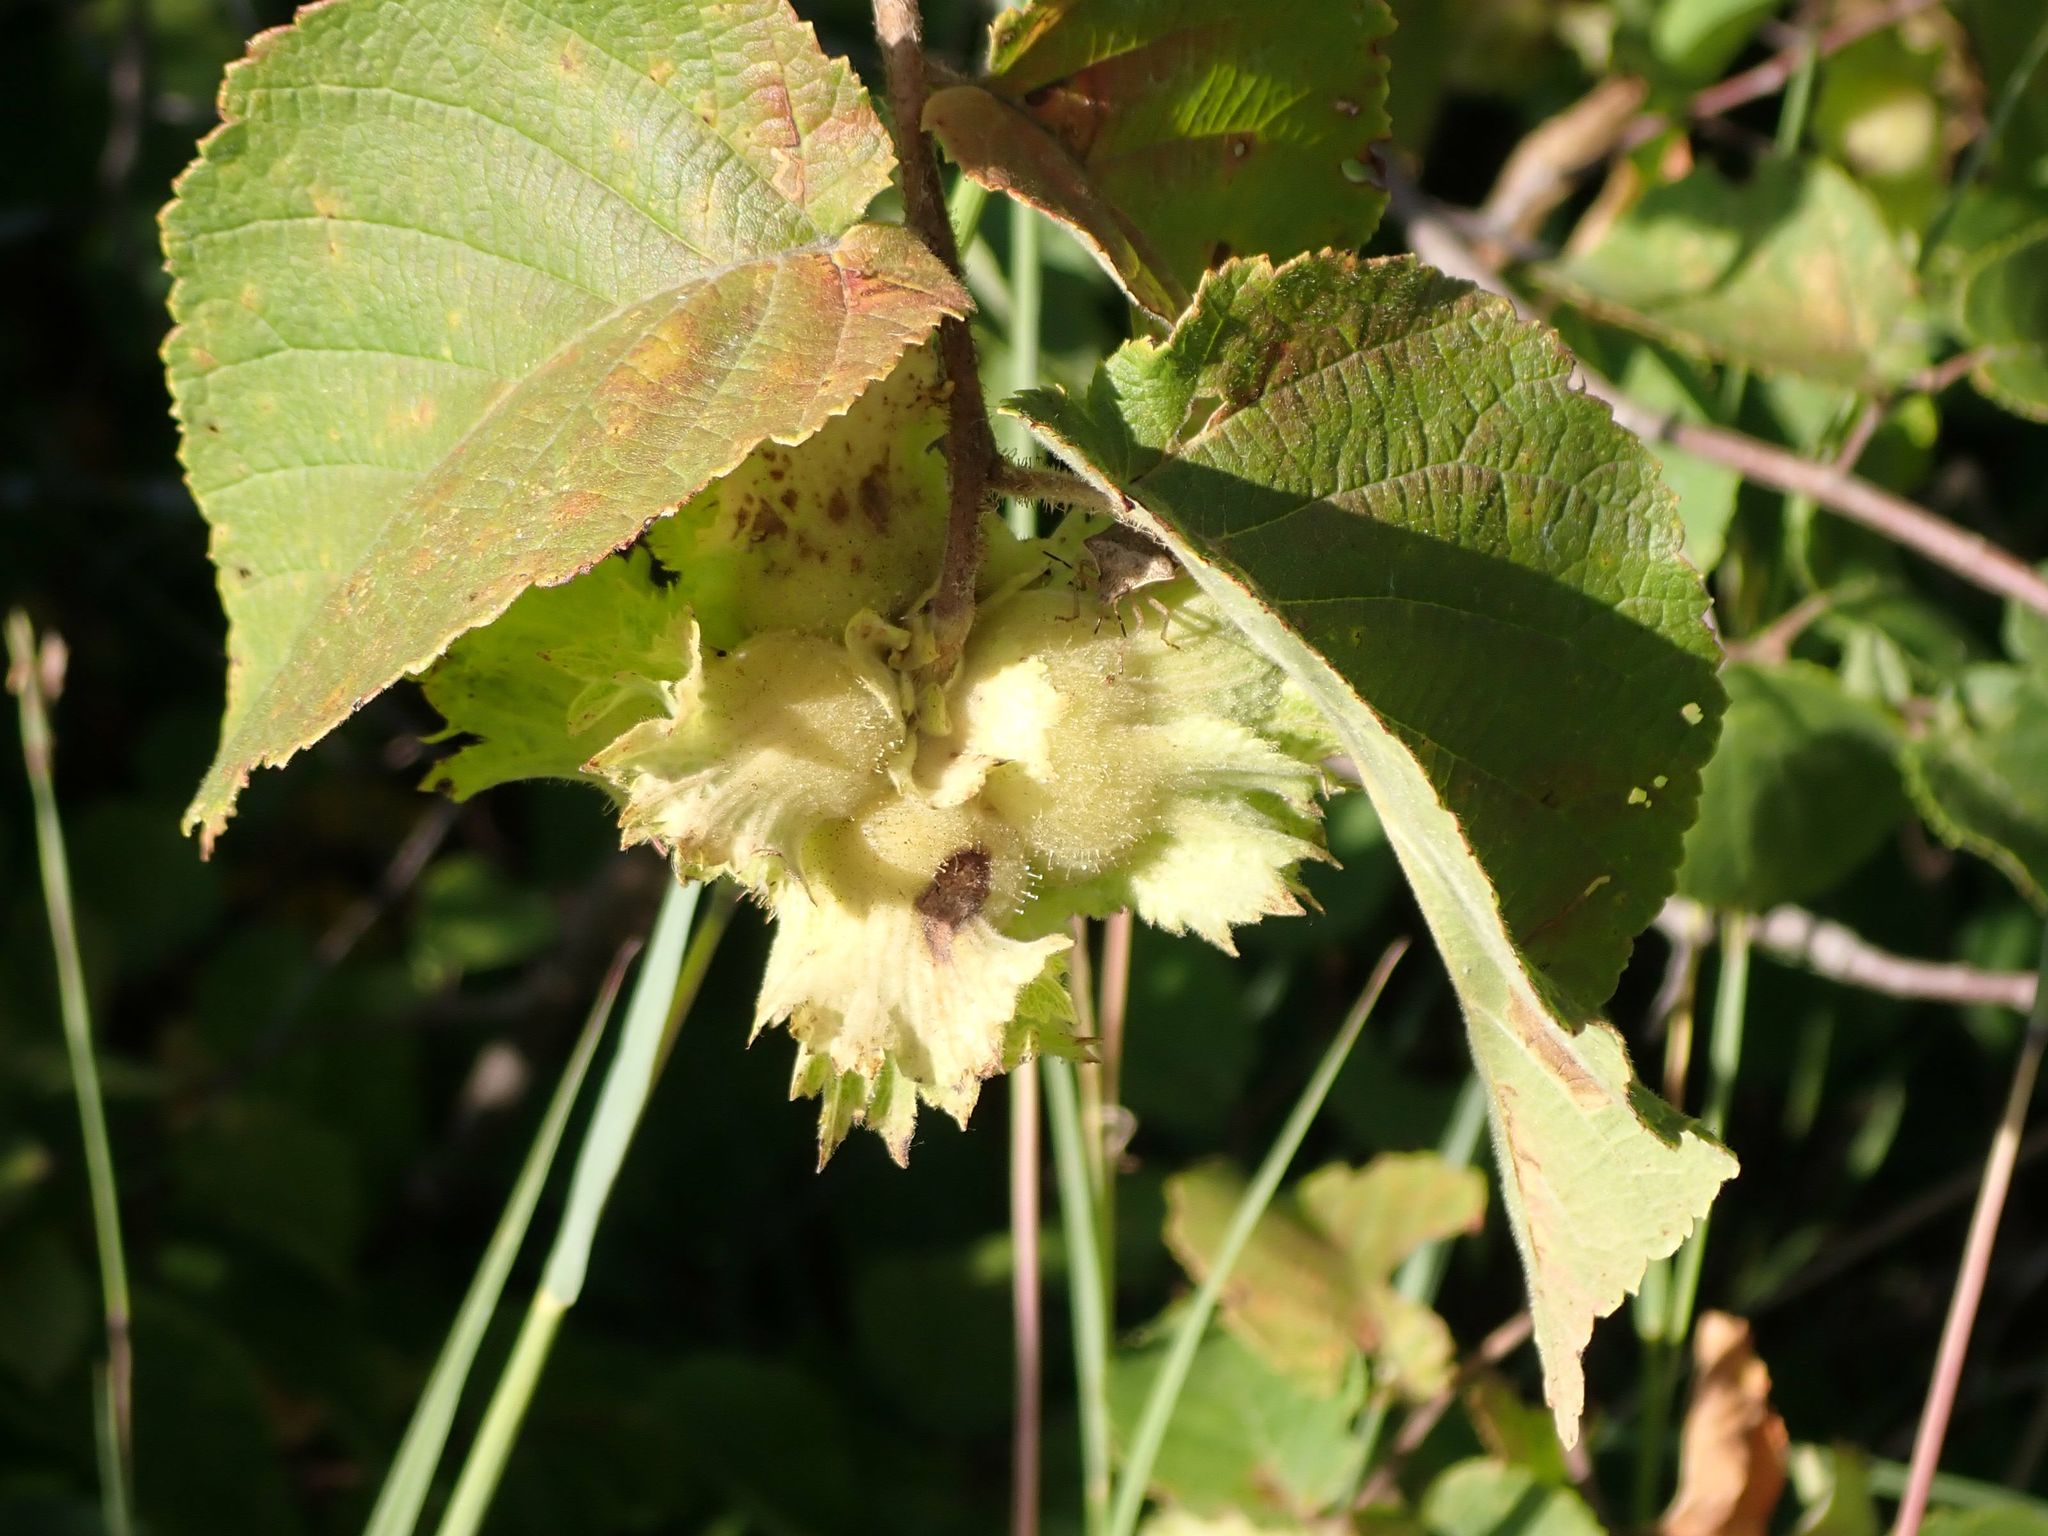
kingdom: Plantae
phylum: Tracheophyta
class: Magnoliopsida
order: Fagales
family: Betulaceae
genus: Corylus
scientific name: Corylus americana
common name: American hazel
